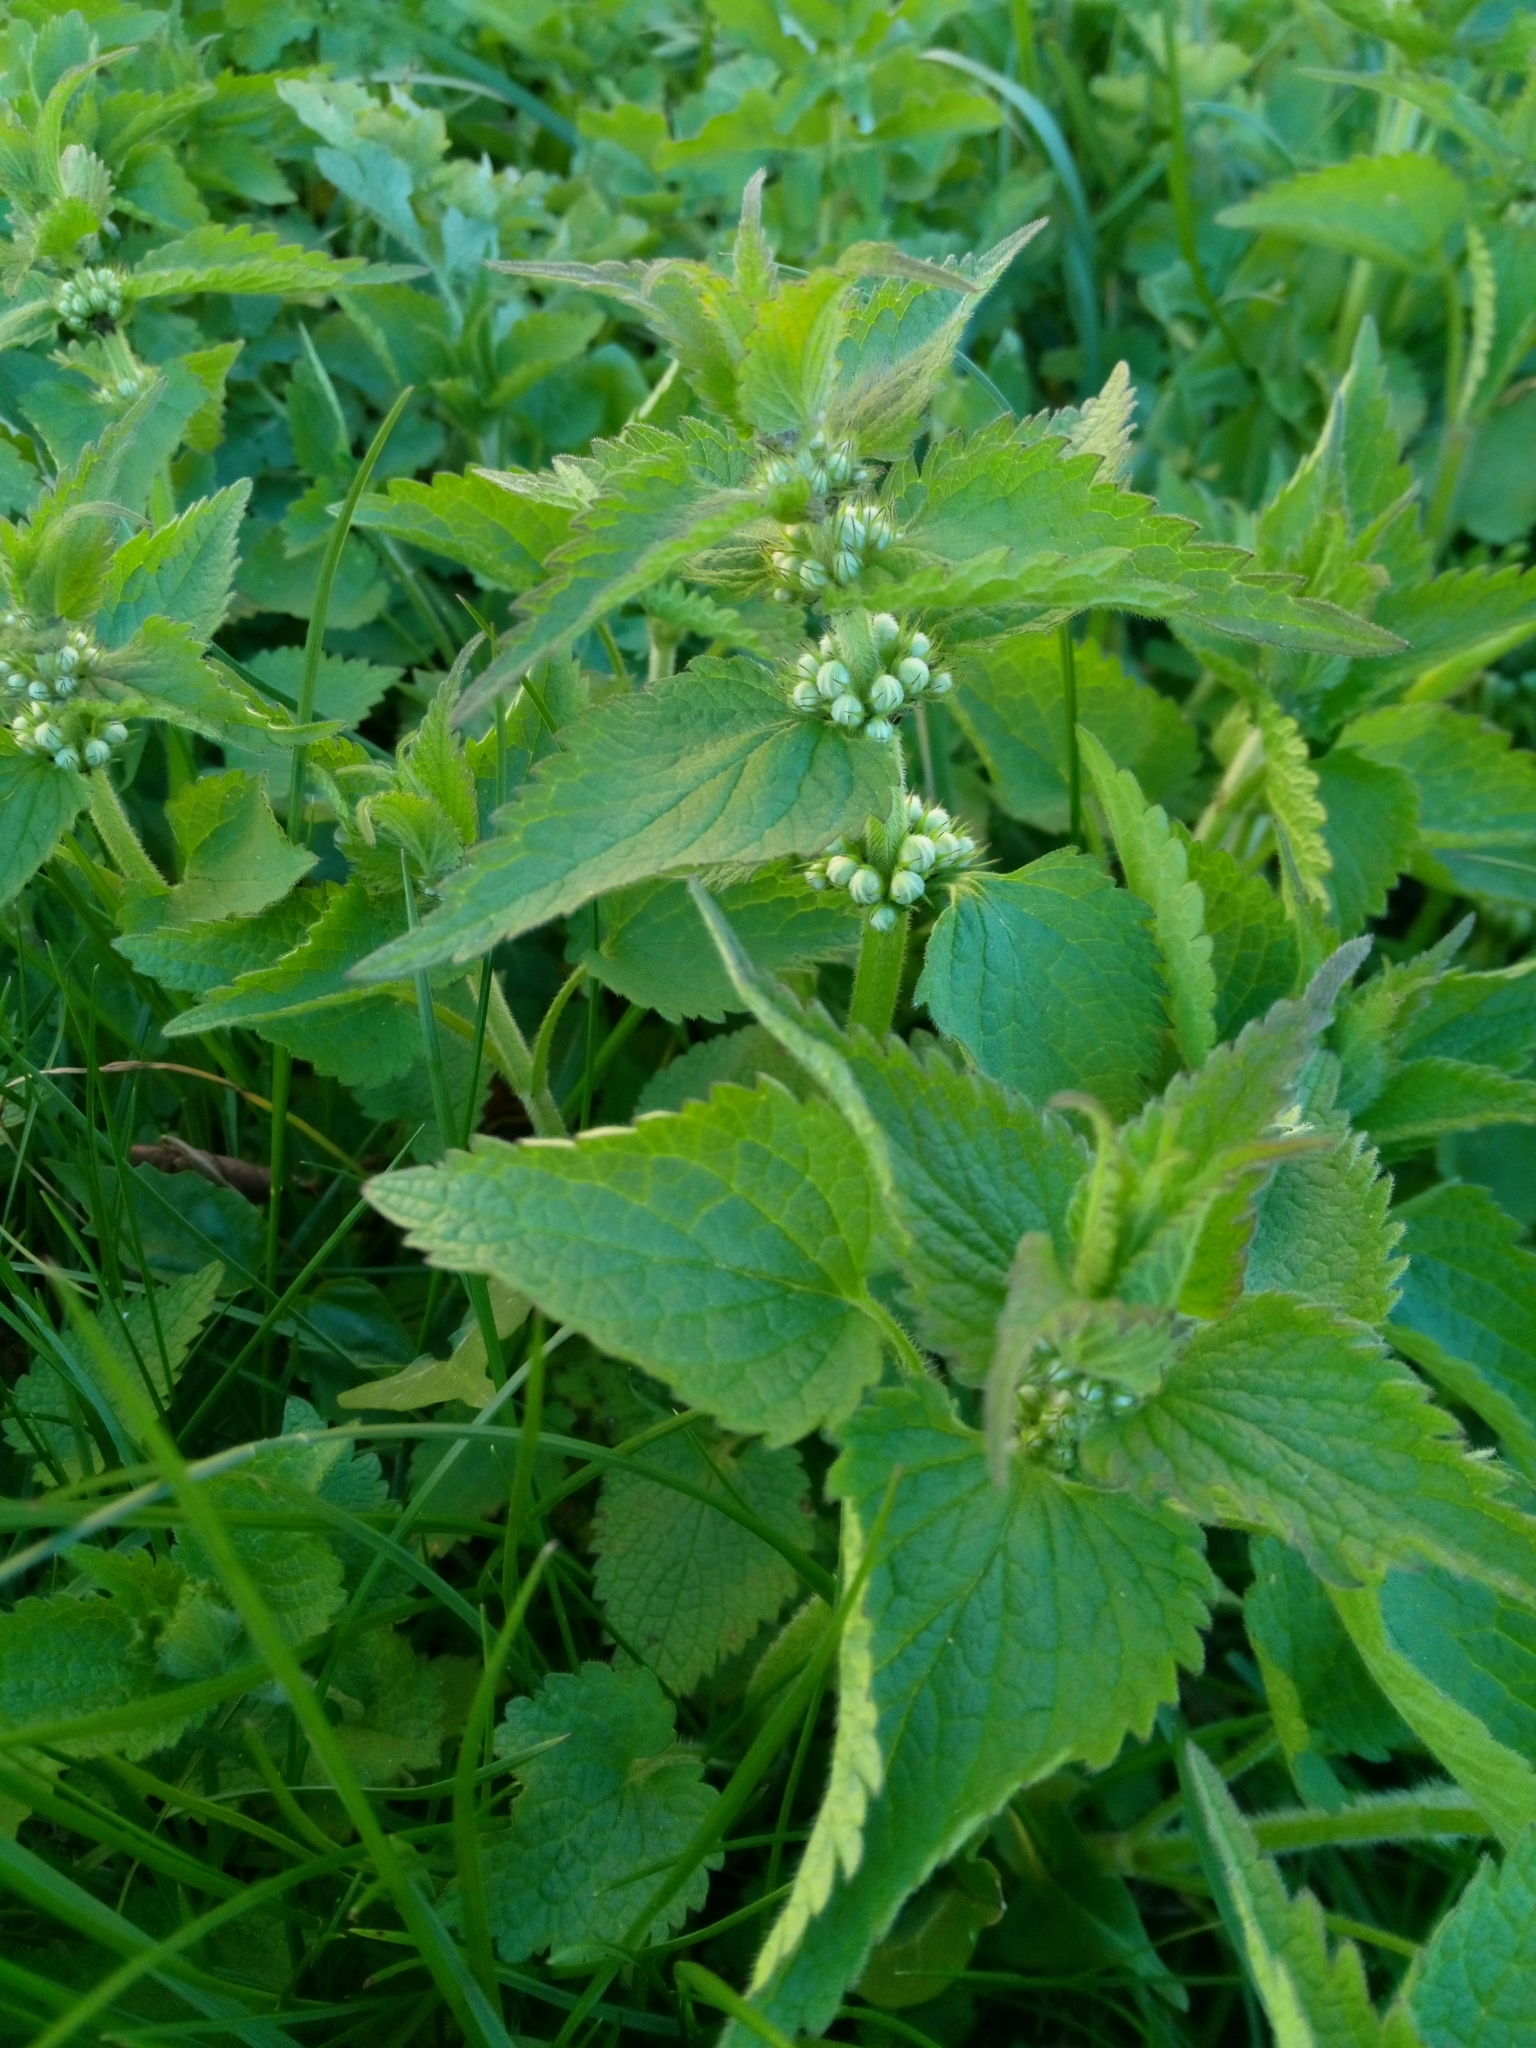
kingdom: Plantae
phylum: Tracheophyta
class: Magnoliopsida
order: Lamiales
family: Lamiaceae
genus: Lamium
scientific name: Lamium album
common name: White dead-nettle
